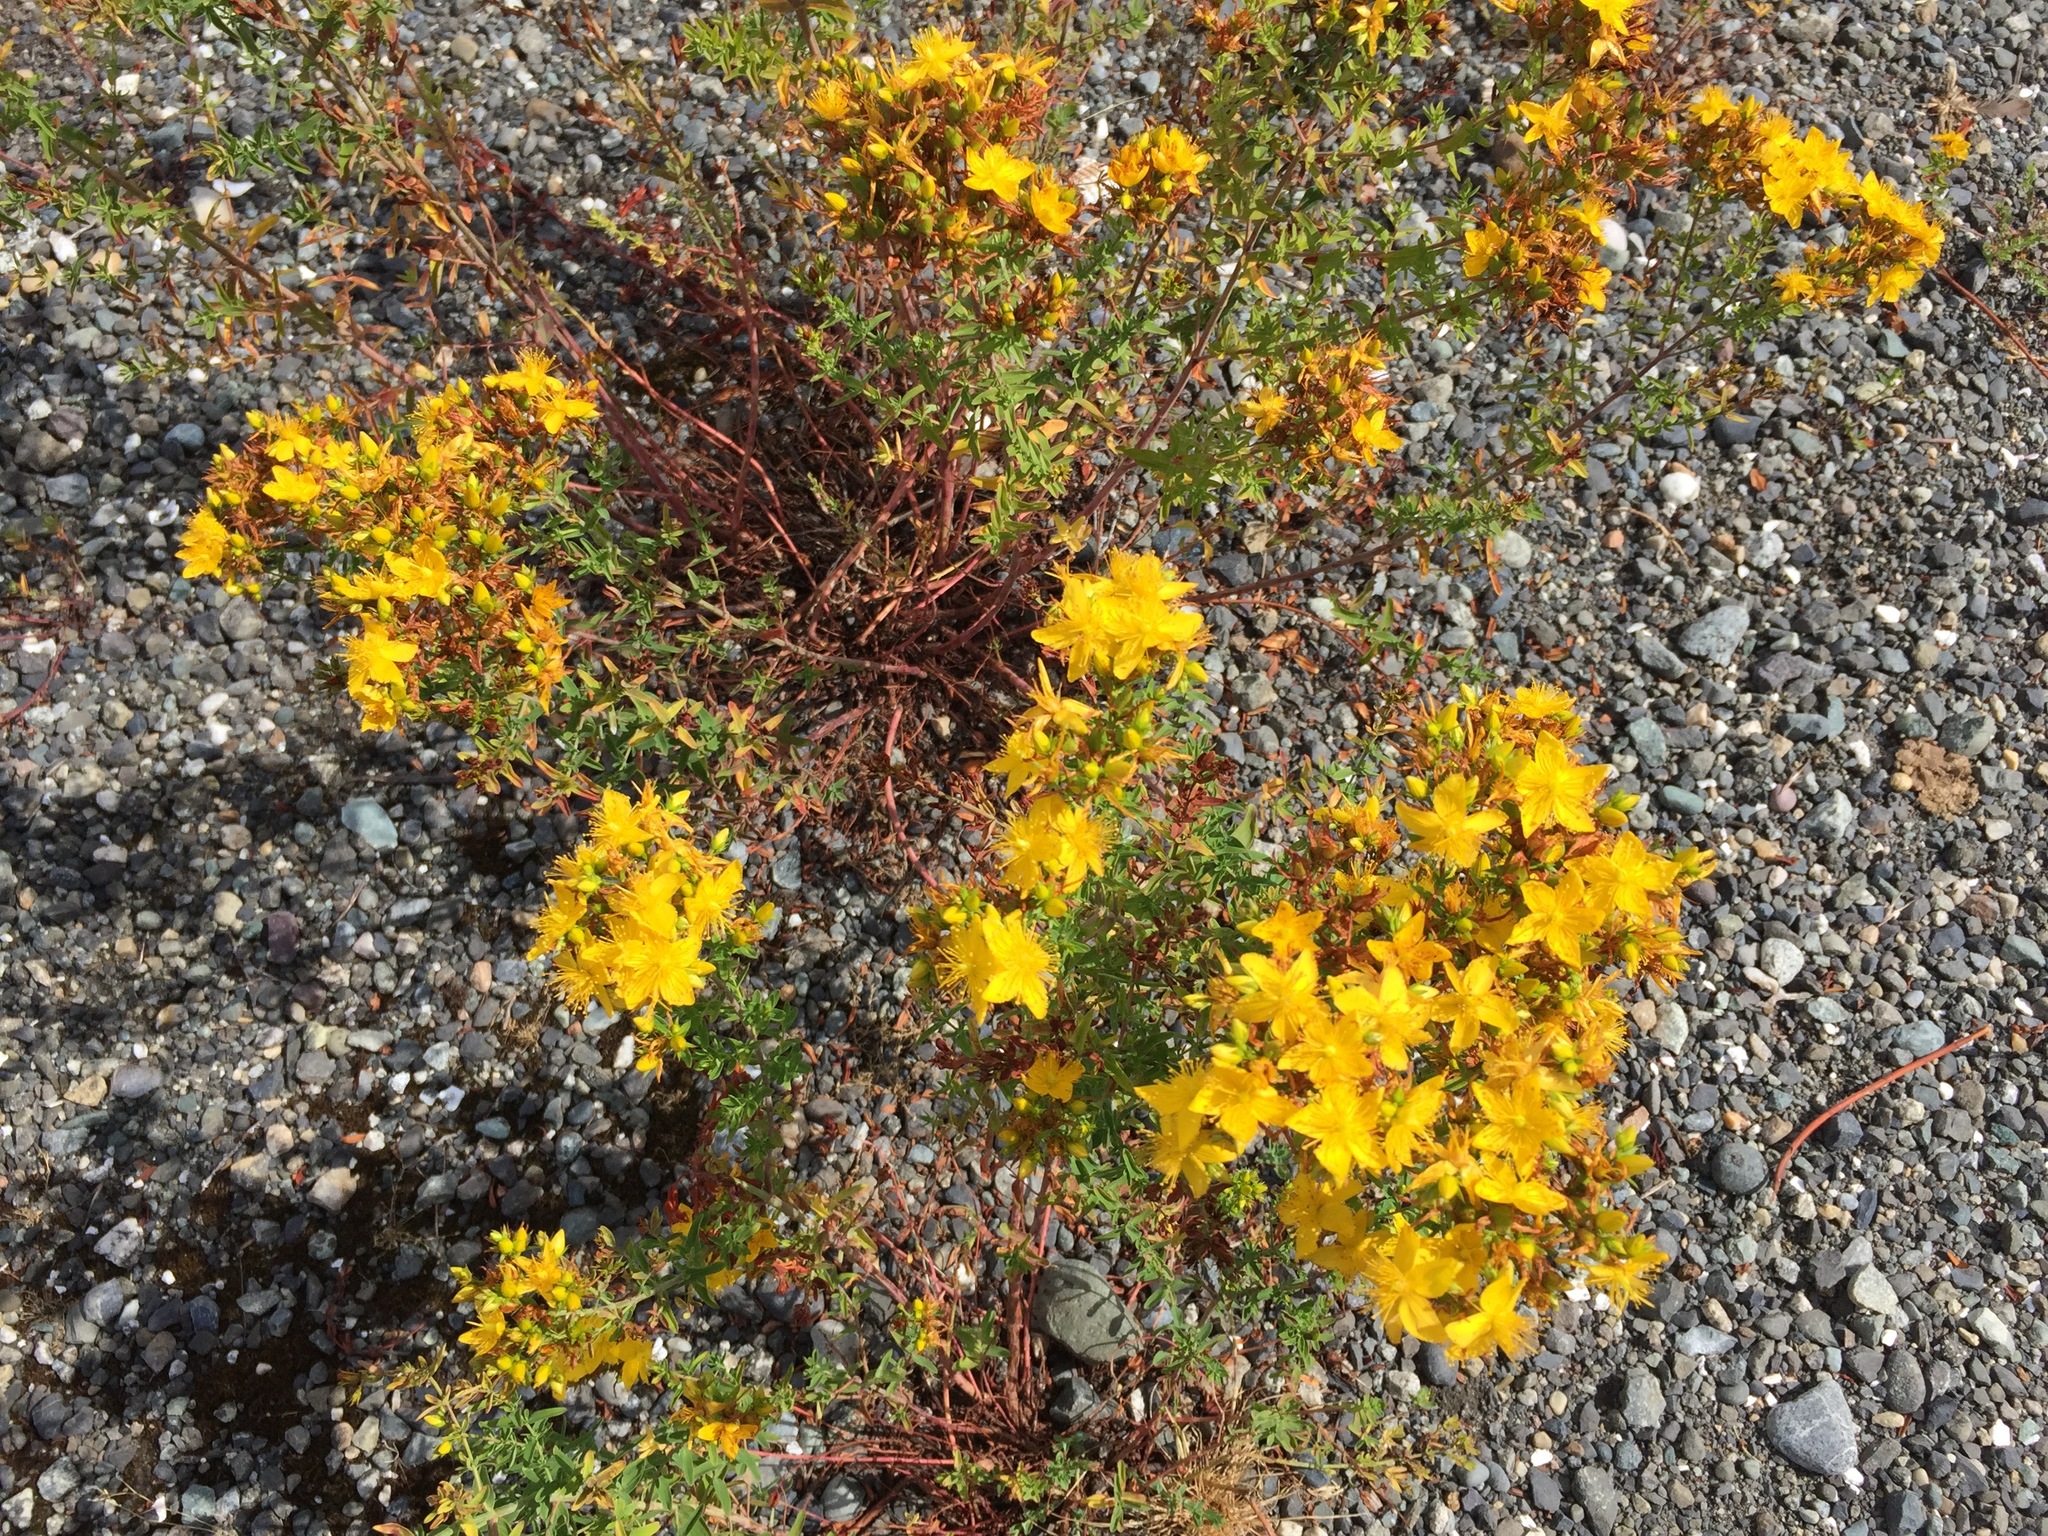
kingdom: Plantae
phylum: Tracheophyta
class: Magnoliopsida
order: Malpighiales
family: Hypericaceae
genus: Hypericum
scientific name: Hypericum perforatum
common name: Common st. johnswort
